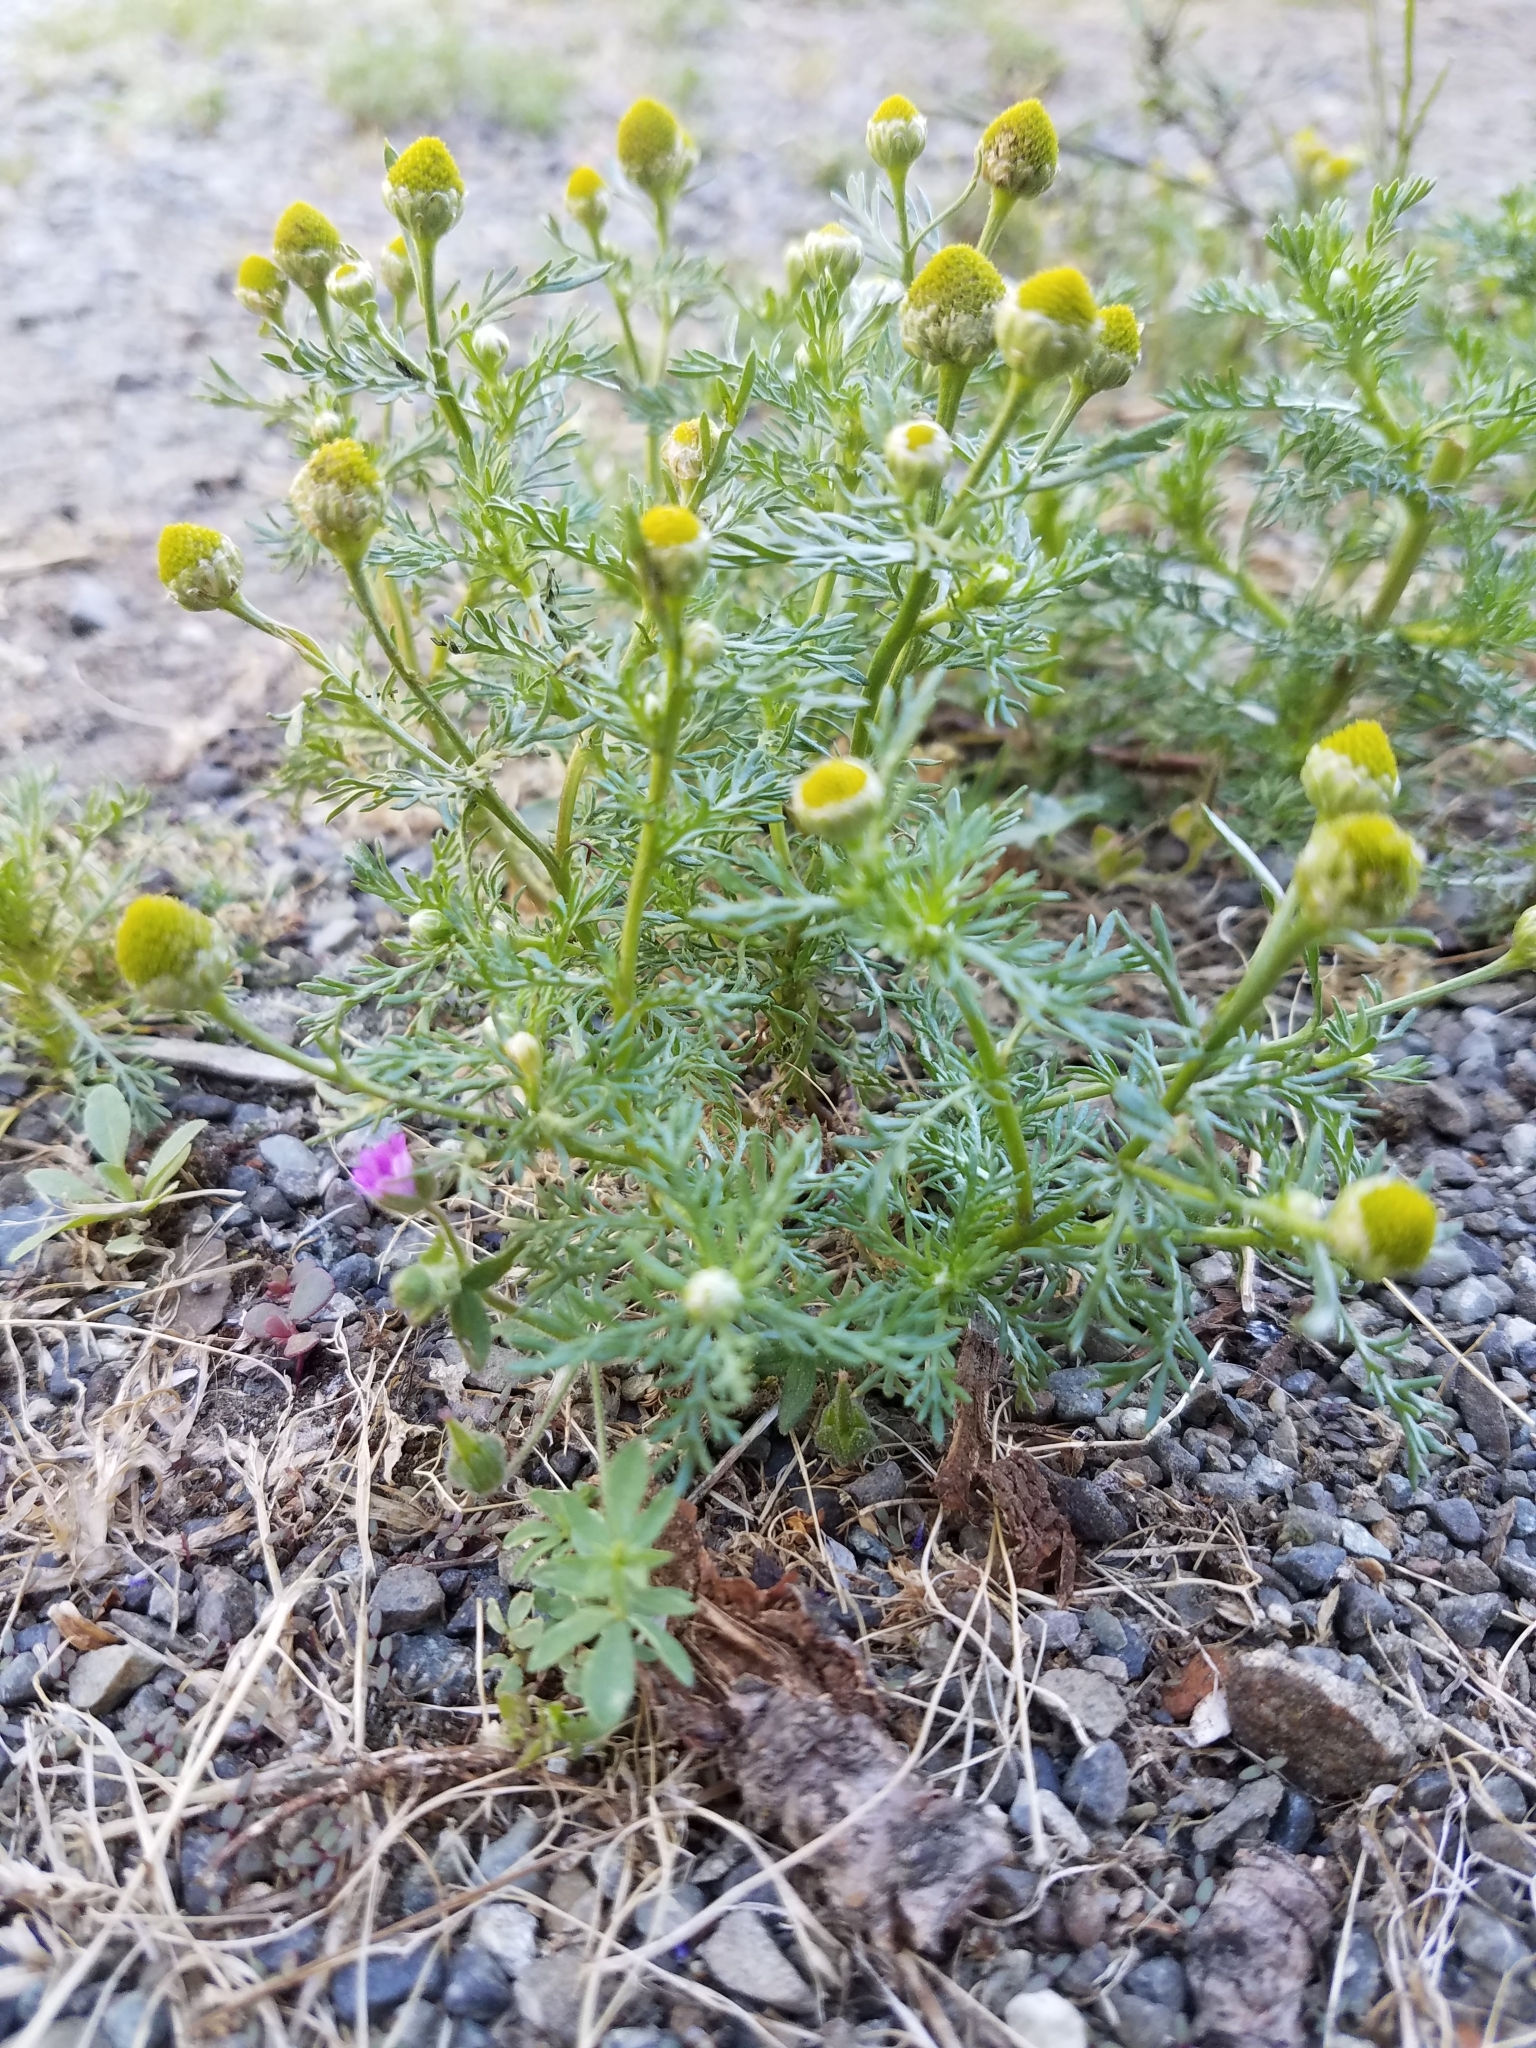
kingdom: Plantae
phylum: Tracheophyta
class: Magnoliopsida
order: Asterales
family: Asteraceae
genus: Matricaria
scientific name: Matricaria discoidea
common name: Disc mayweed
